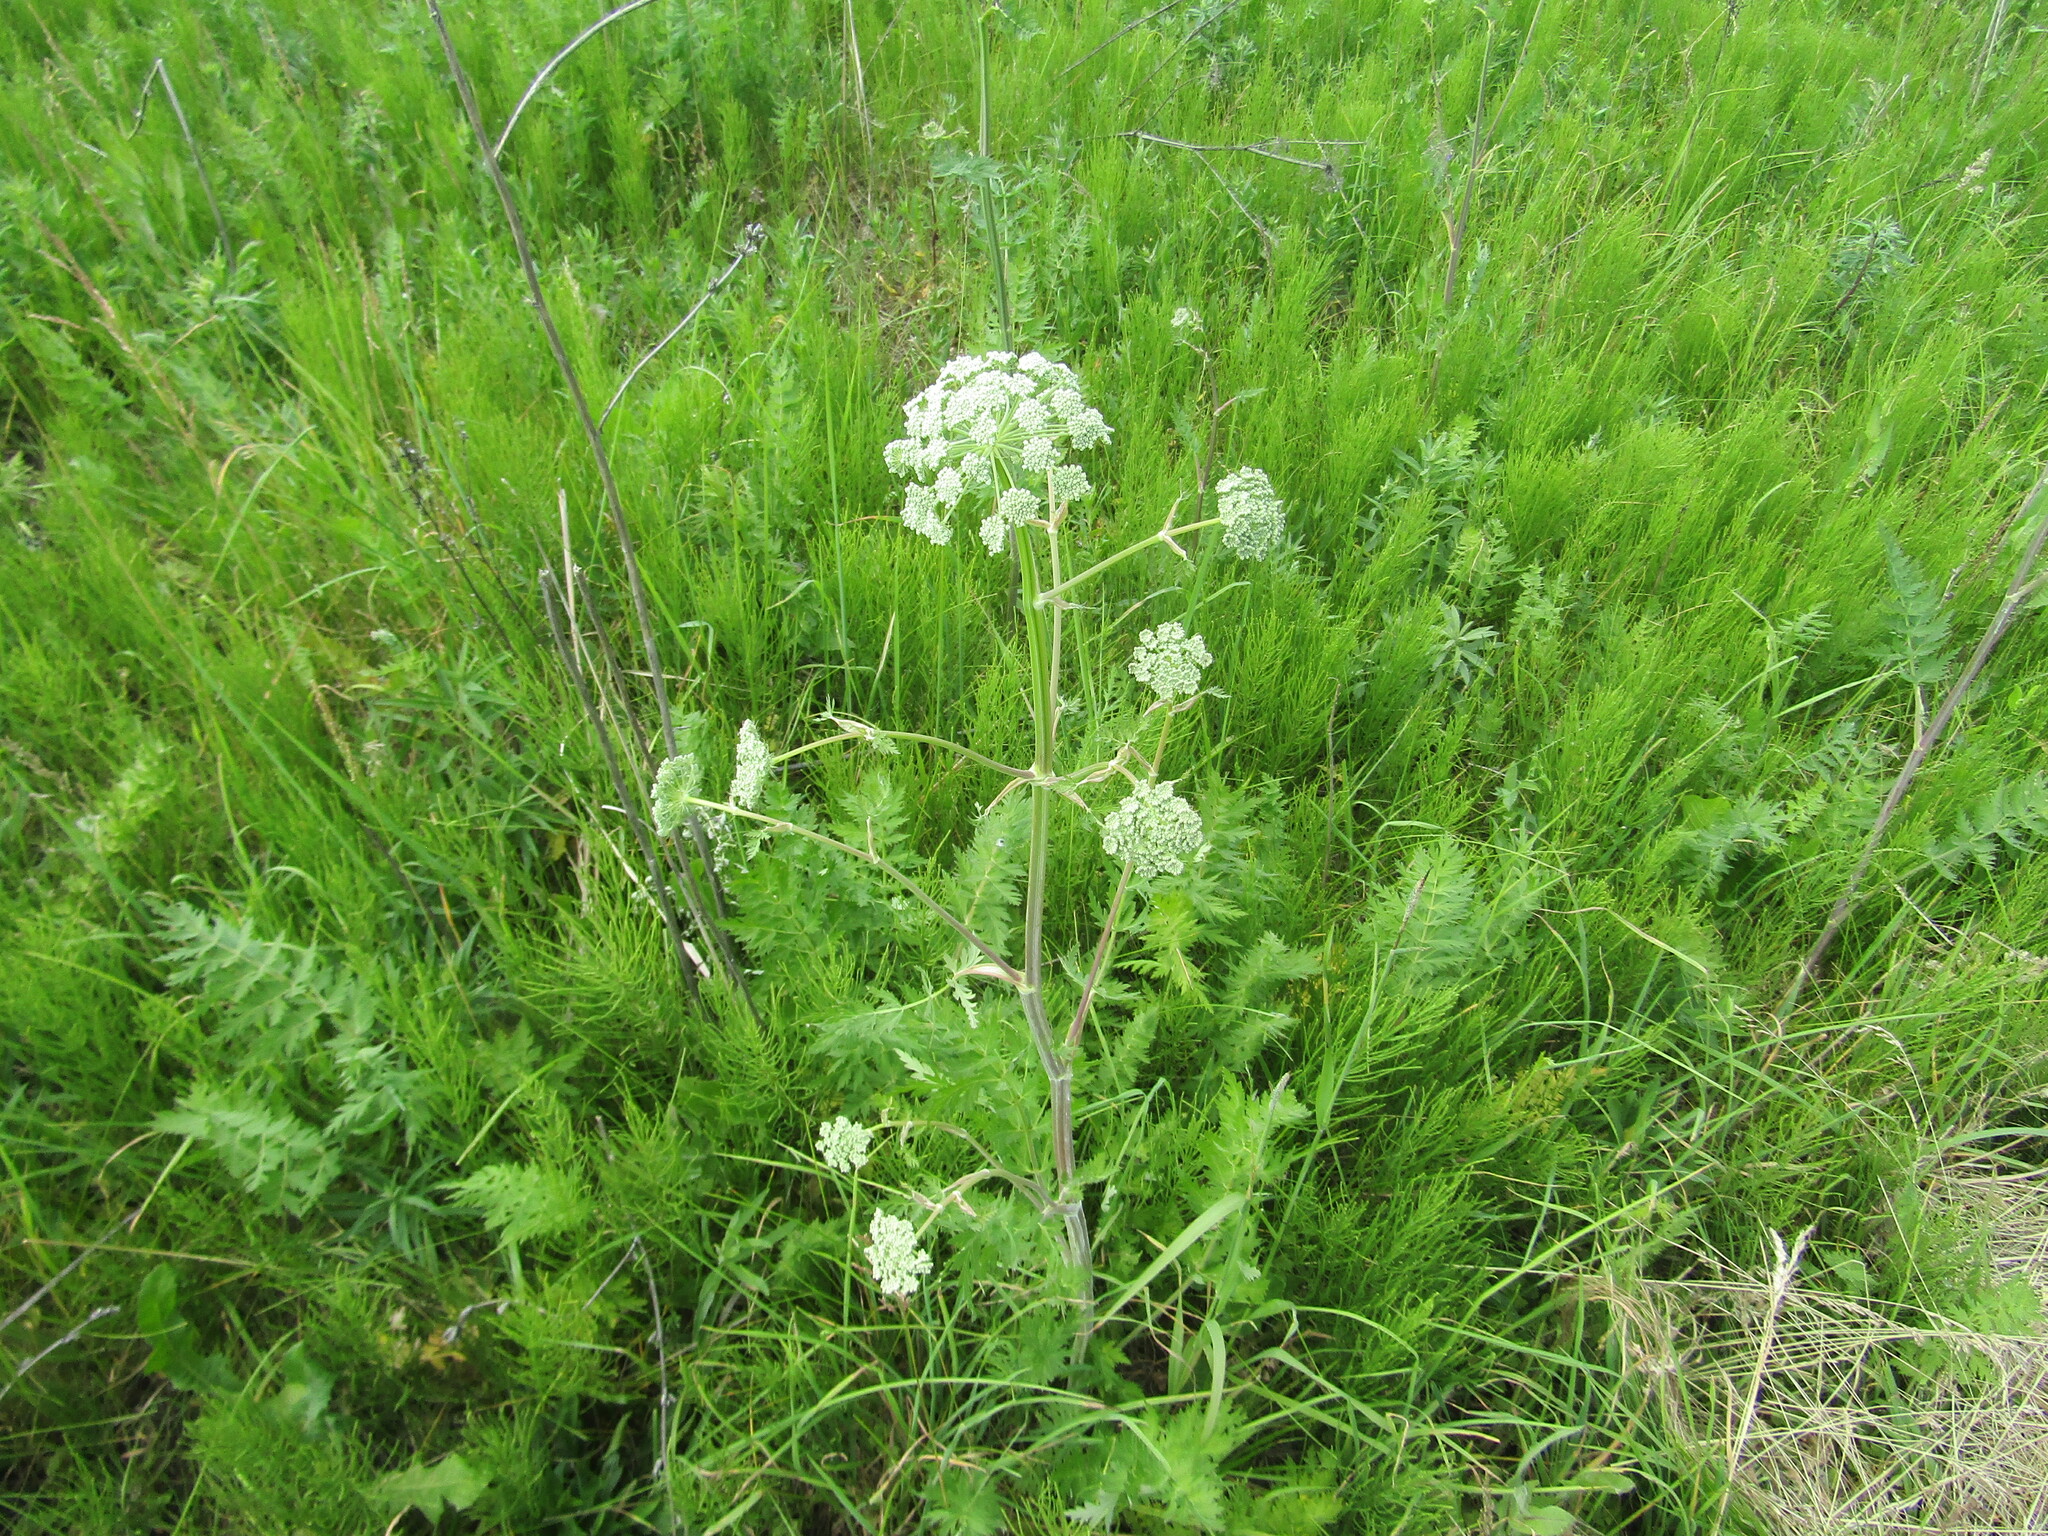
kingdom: Plantae
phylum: Tracheophyta
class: Magnoliopsida
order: Apiales
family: Apiaceae
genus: Seseli
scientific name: Seseli libanotis
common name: Mooncarrot
